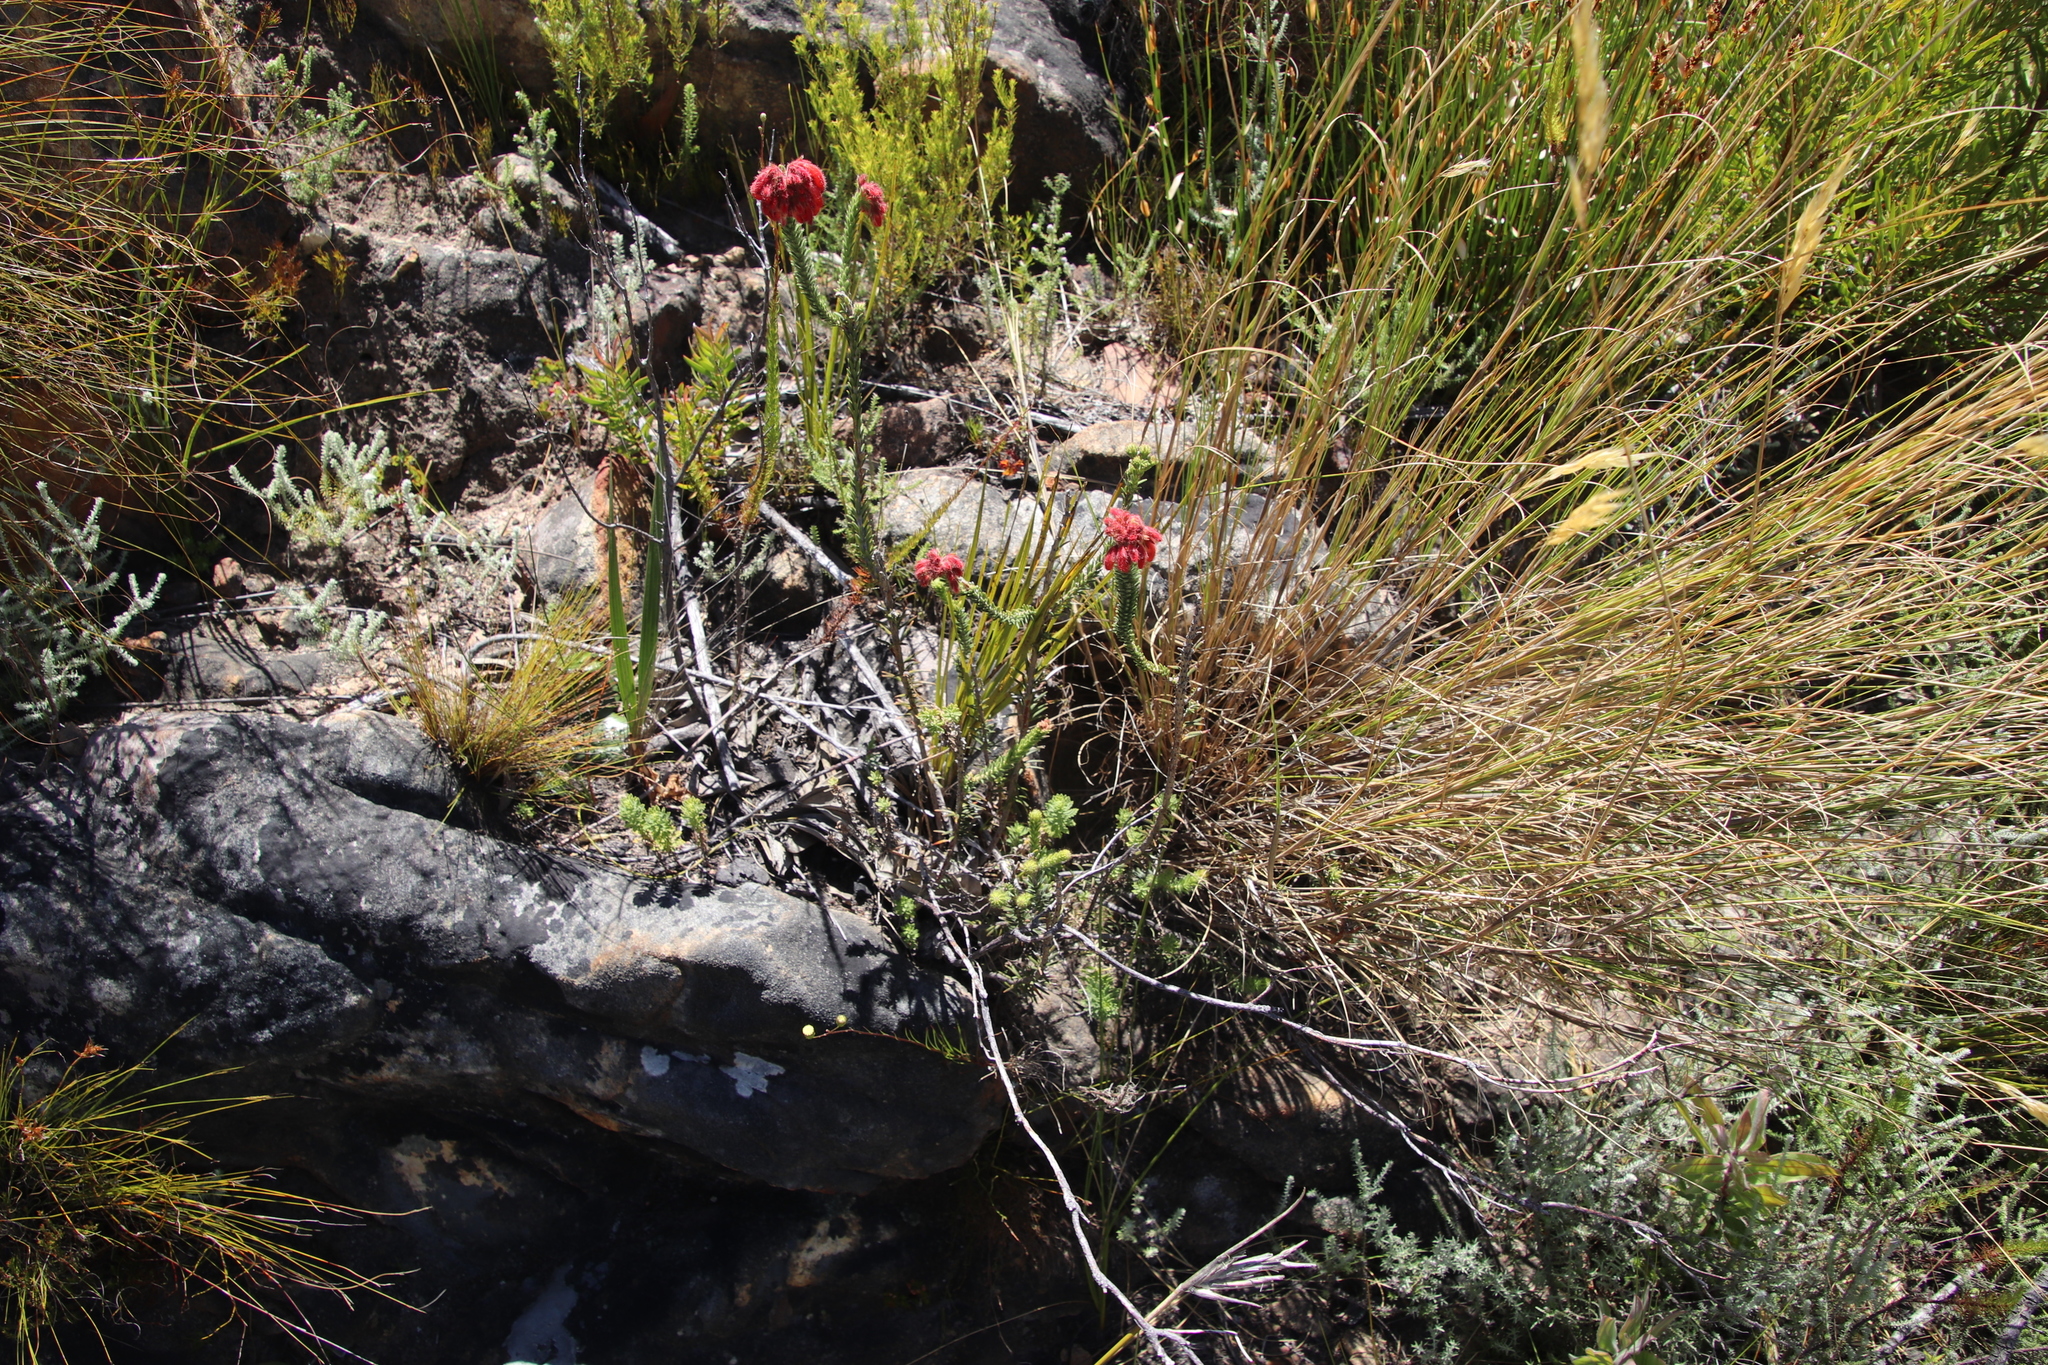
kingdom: Plantae
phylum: Tracheophyta
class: Magnoliopsida
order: Ericales
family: Ericaceae
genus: Erica
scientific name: Erica cerinthoides
